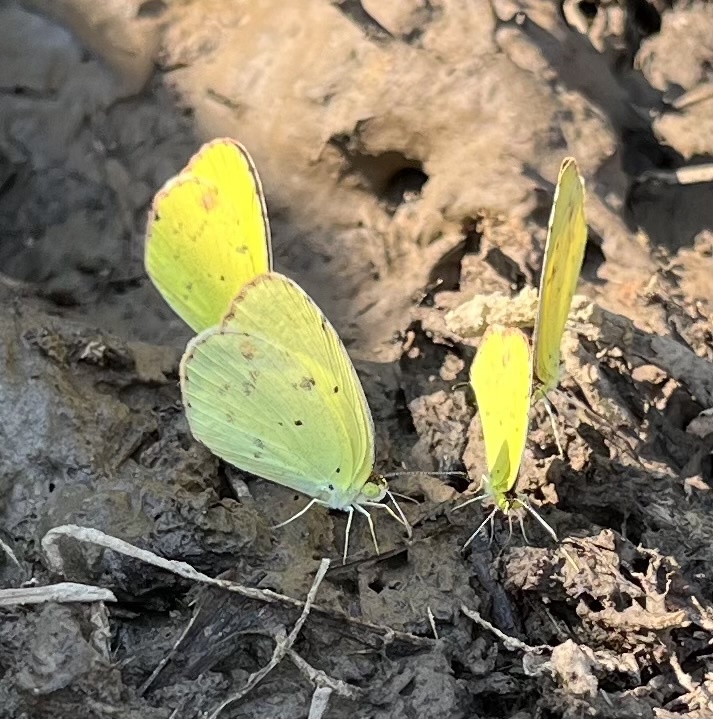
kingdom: Animalia
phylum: Arthropoda
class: Insecta
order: Lepidoptera
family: Pieridae
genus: Pyrisitia
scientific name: Pyrisitia lisa
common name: Little yellow
